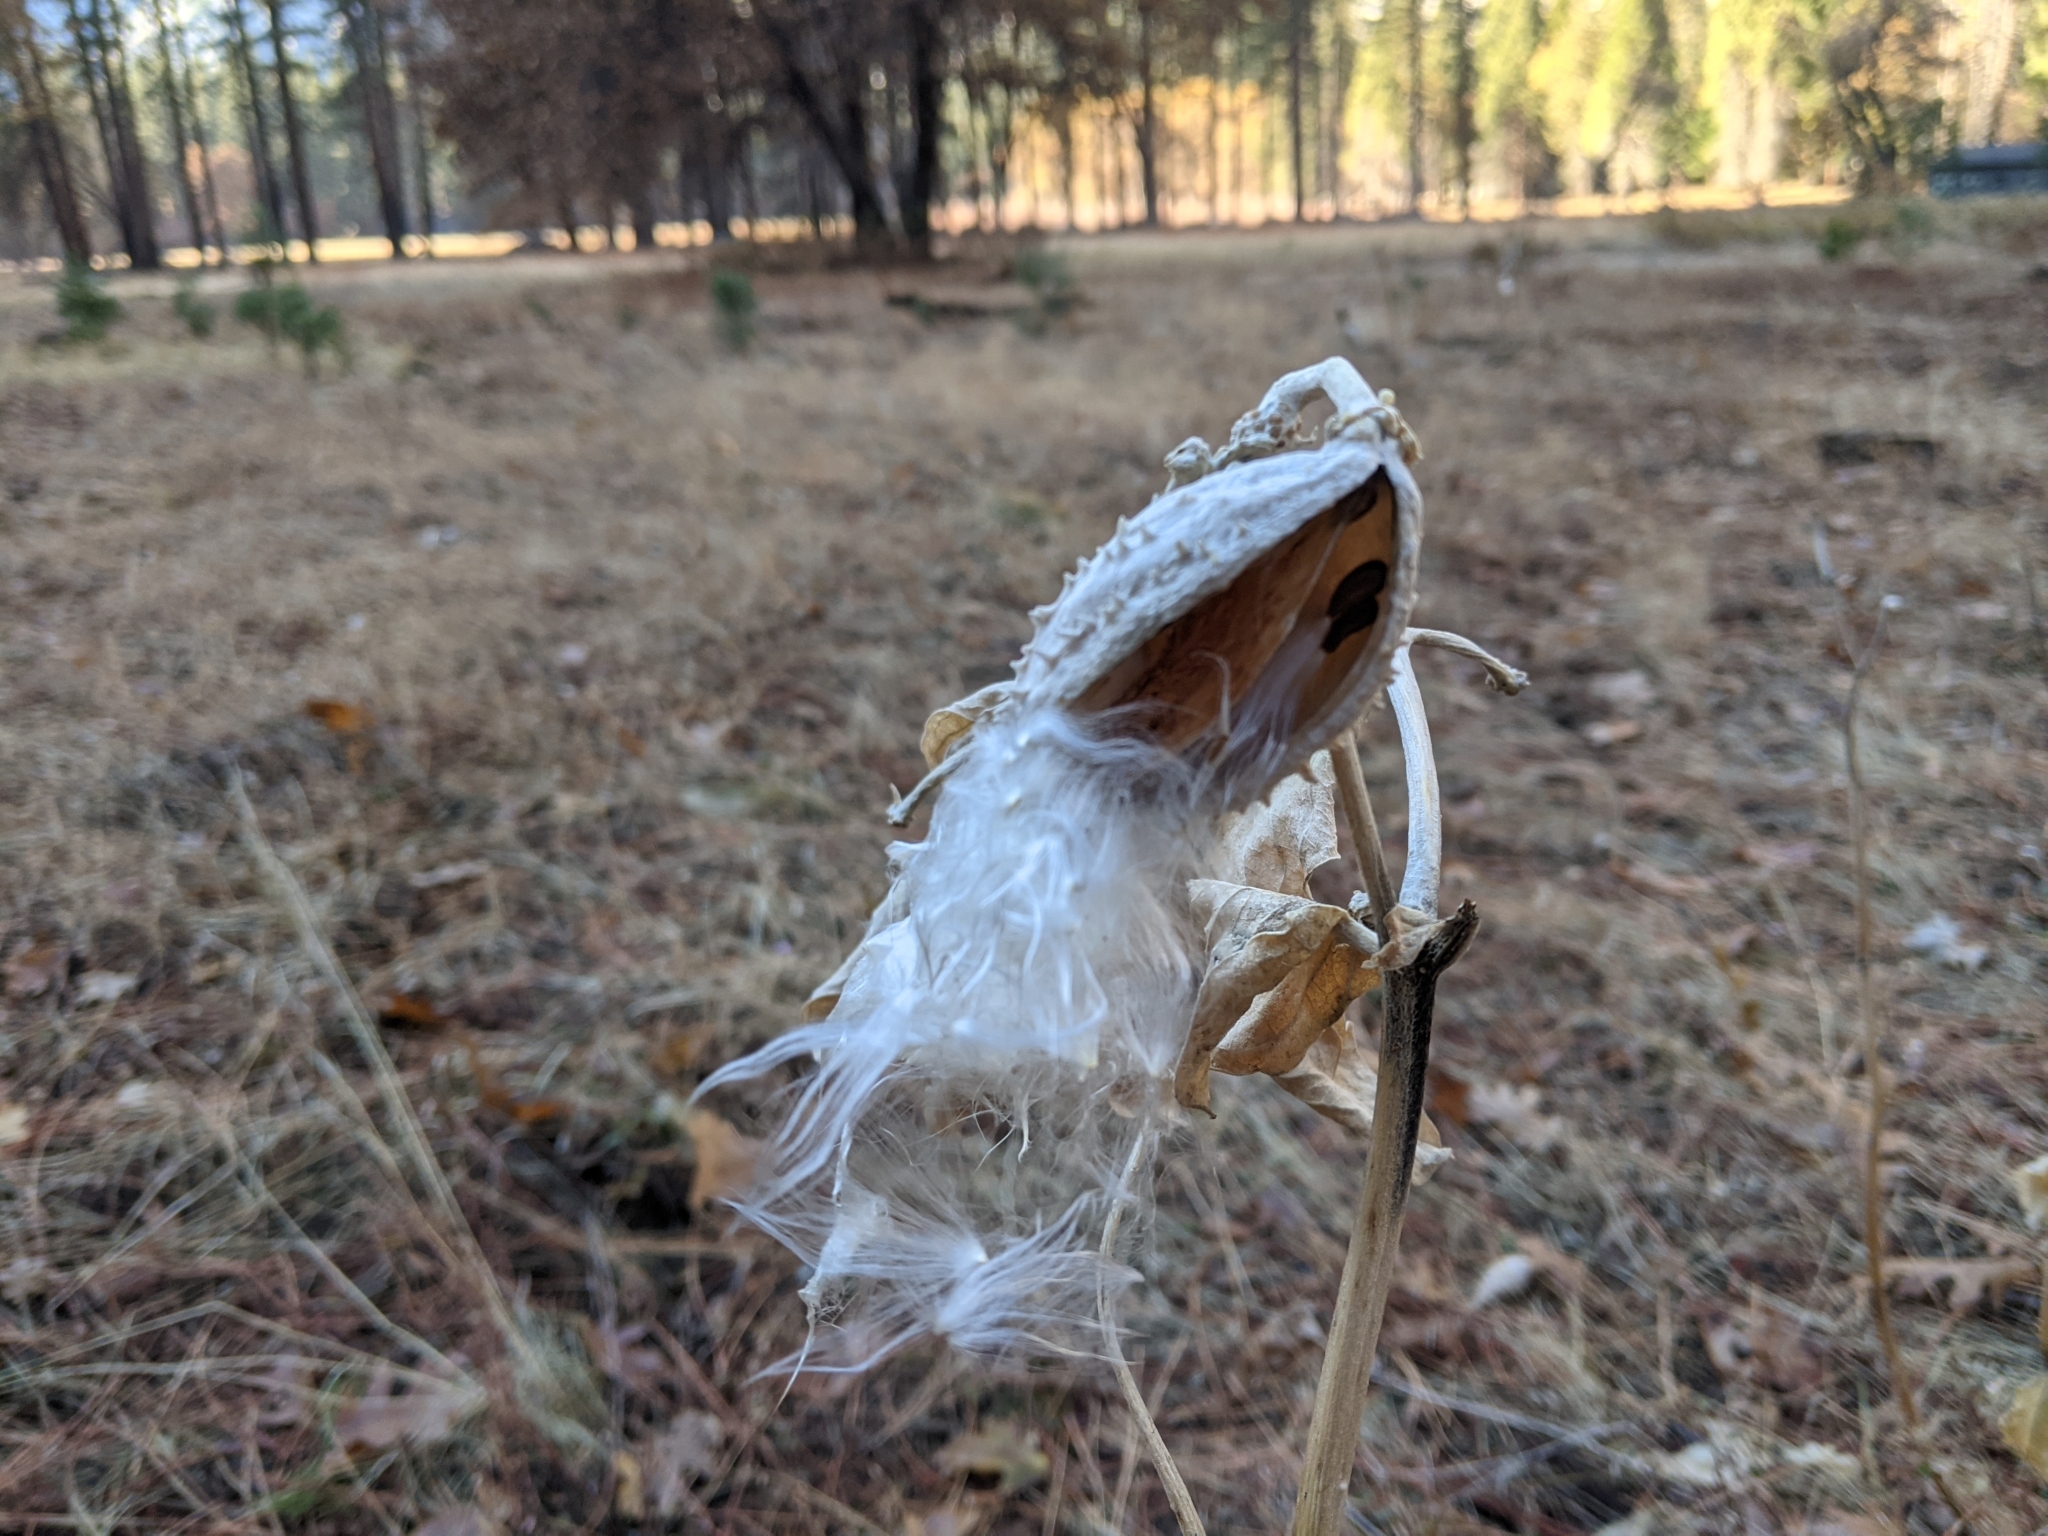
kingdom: Plantae
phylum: Tracheophyta
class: Magnoliopsida
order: Gentianales
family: Apocynaceae
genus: Asclepias
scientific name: Asclepias speciosa
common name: Showy milkweed
